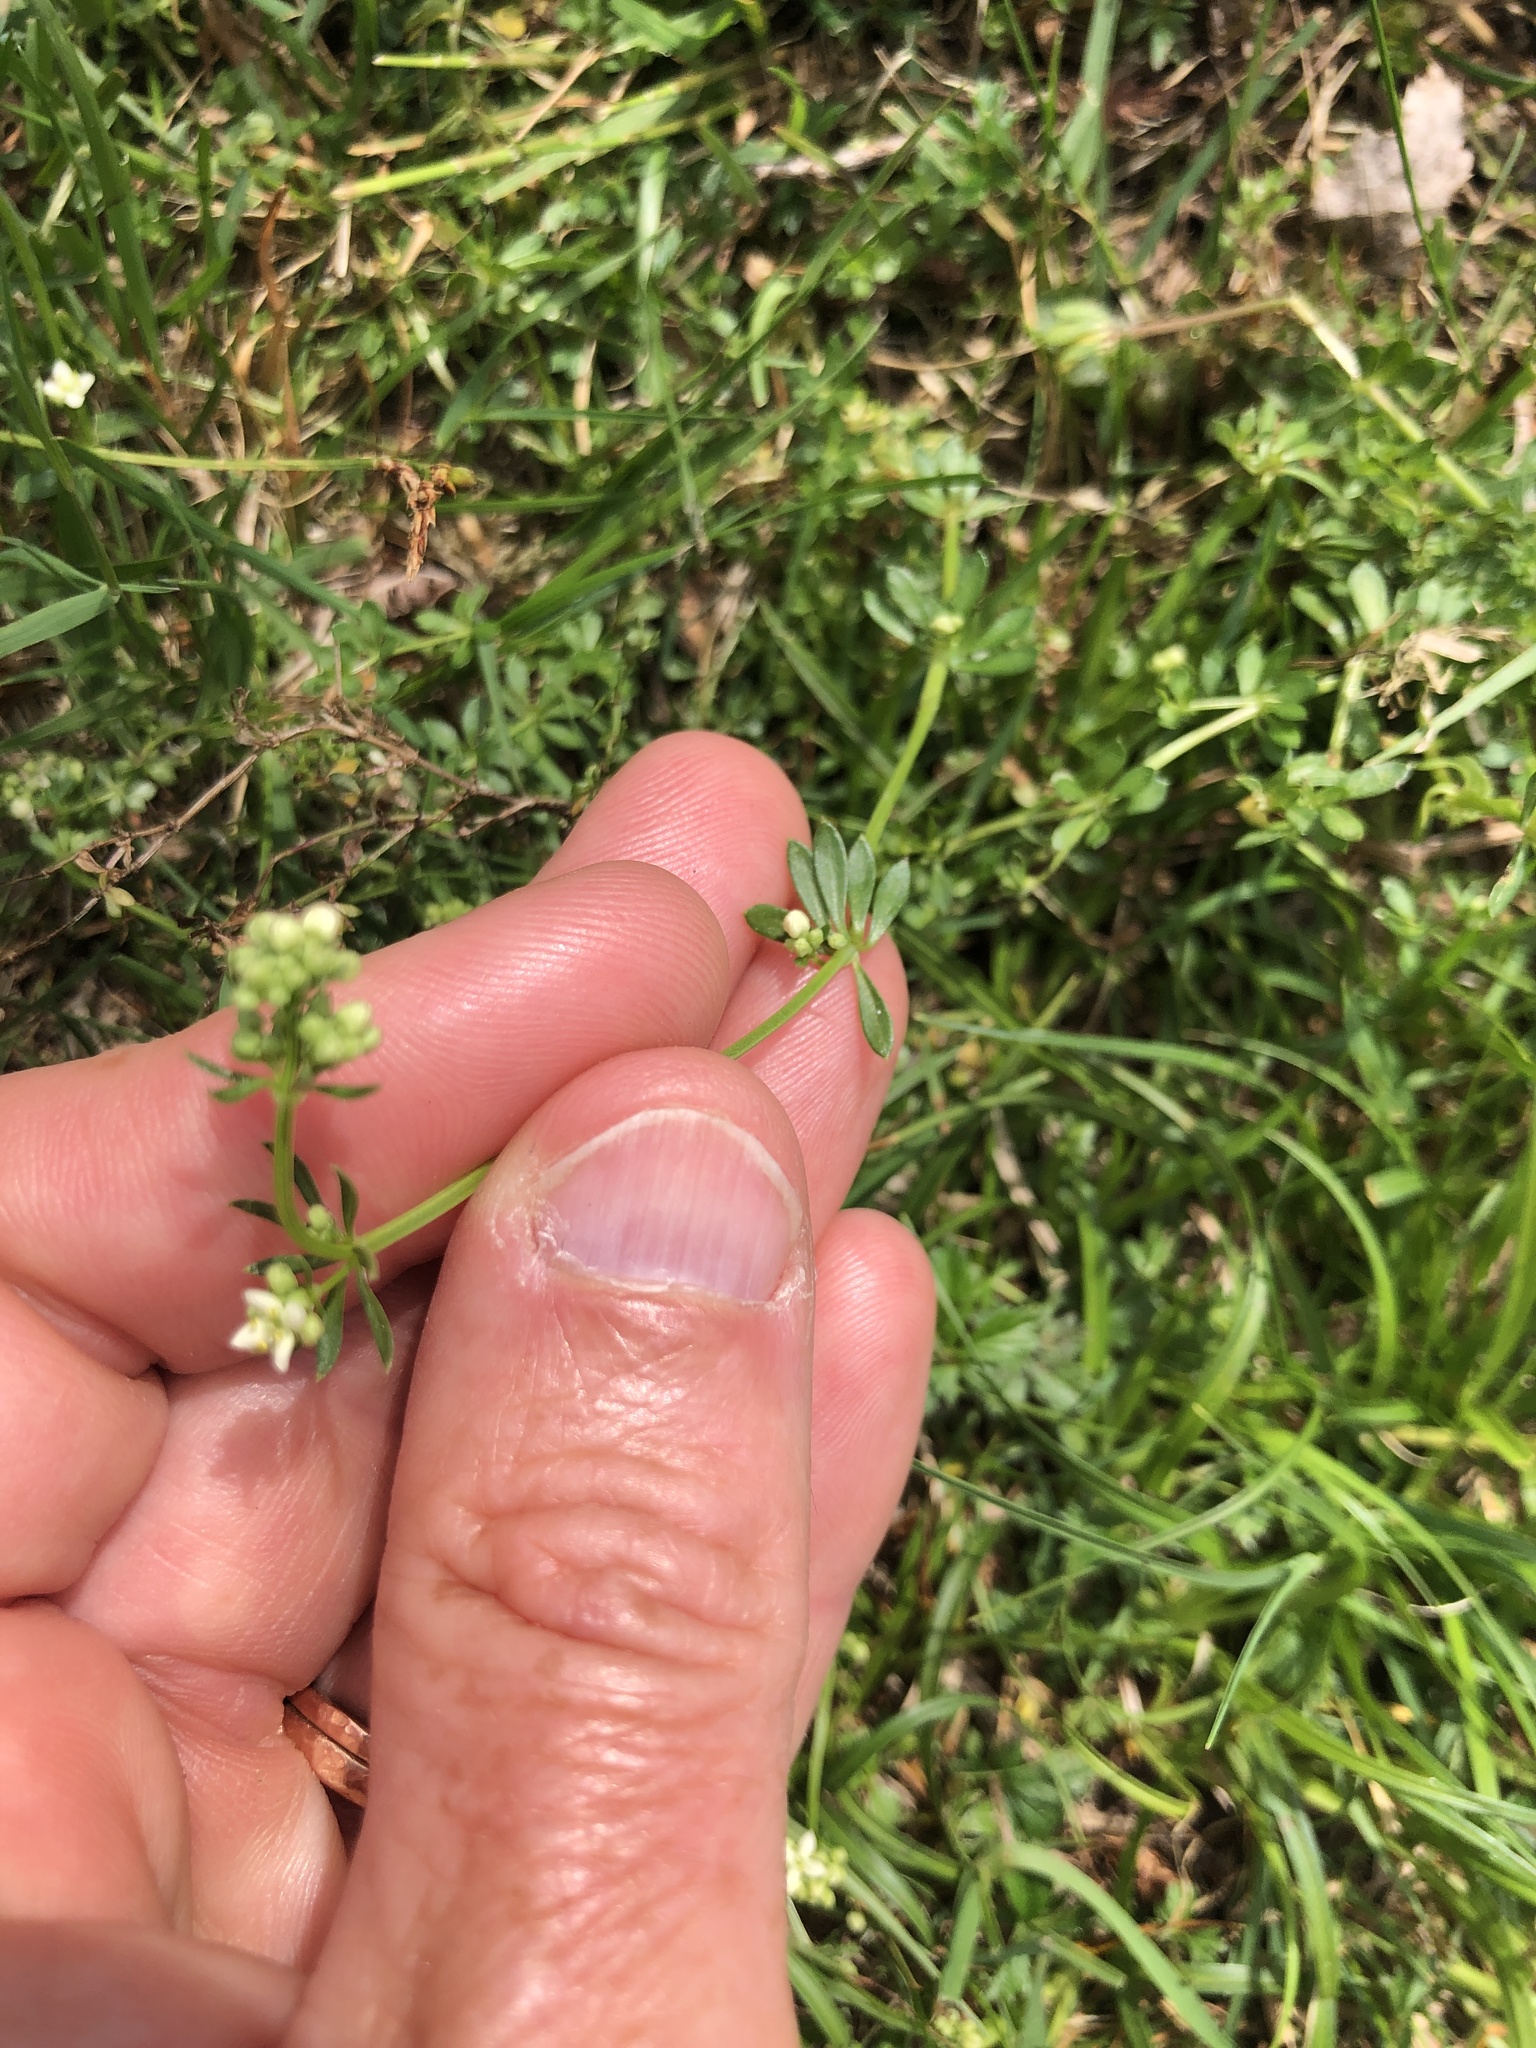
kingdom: Plantae
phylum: Tracheophyta
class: Magnoliopsida
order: Gentianales
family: Rubiaceae
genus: Galium
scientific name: Galium saxatile
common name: Heath bedstraw
